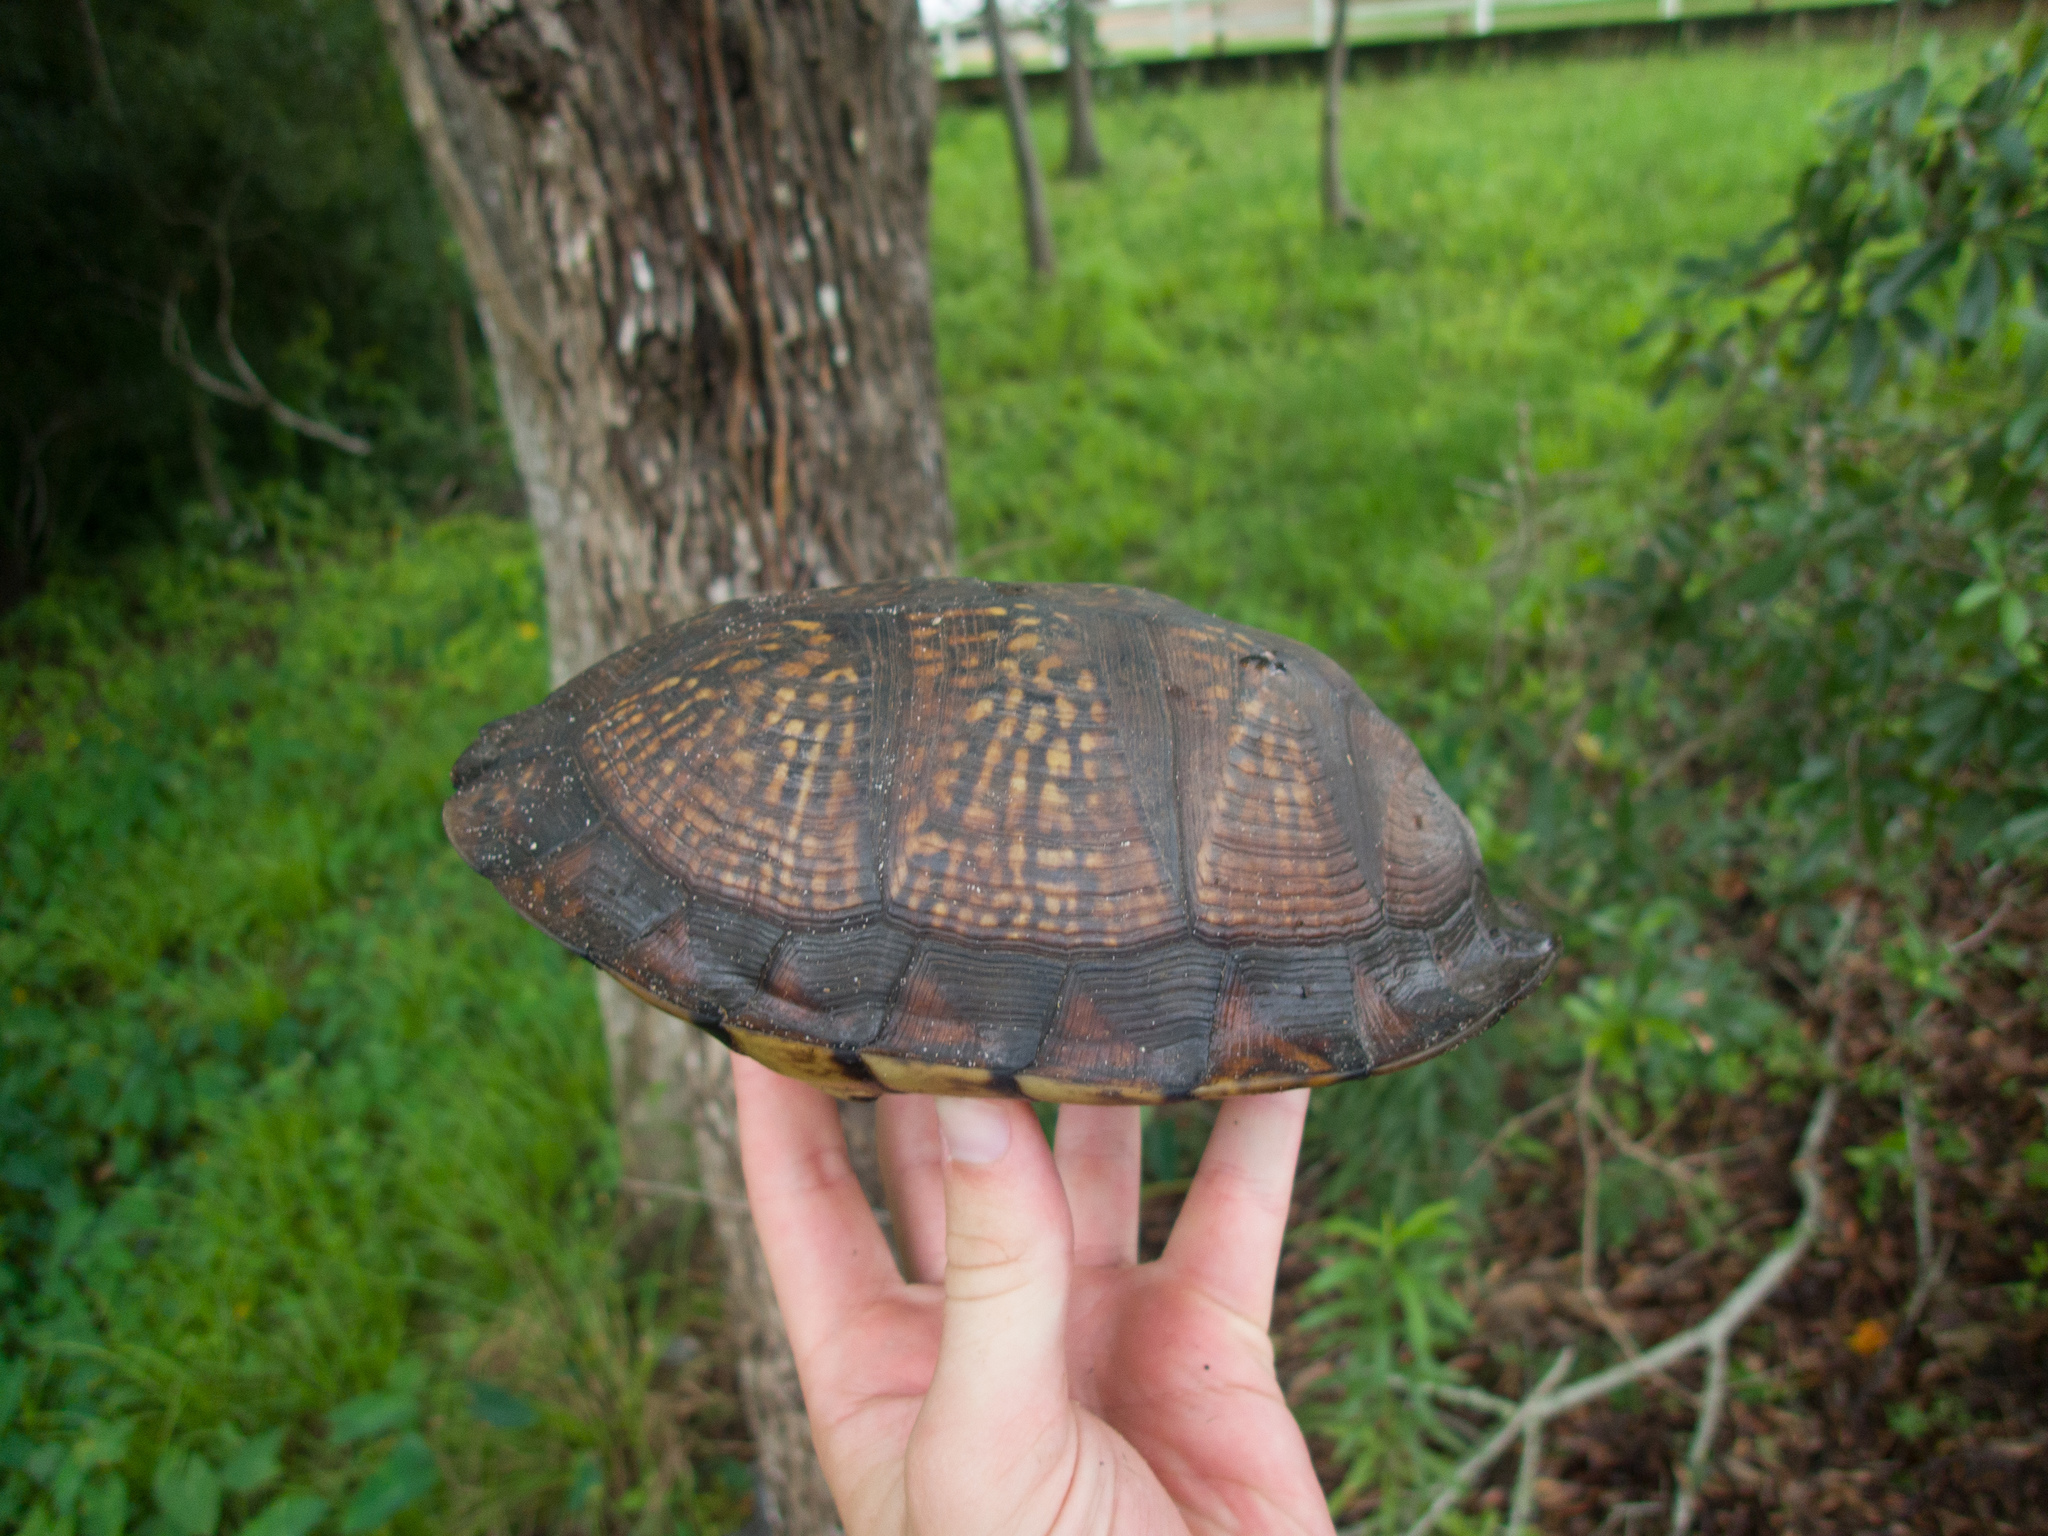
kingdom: Animalia
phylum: Chordata
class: Testudines
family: Emydidae
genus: Terrapene
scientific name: Terrapene carolina
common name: Common box turtle
